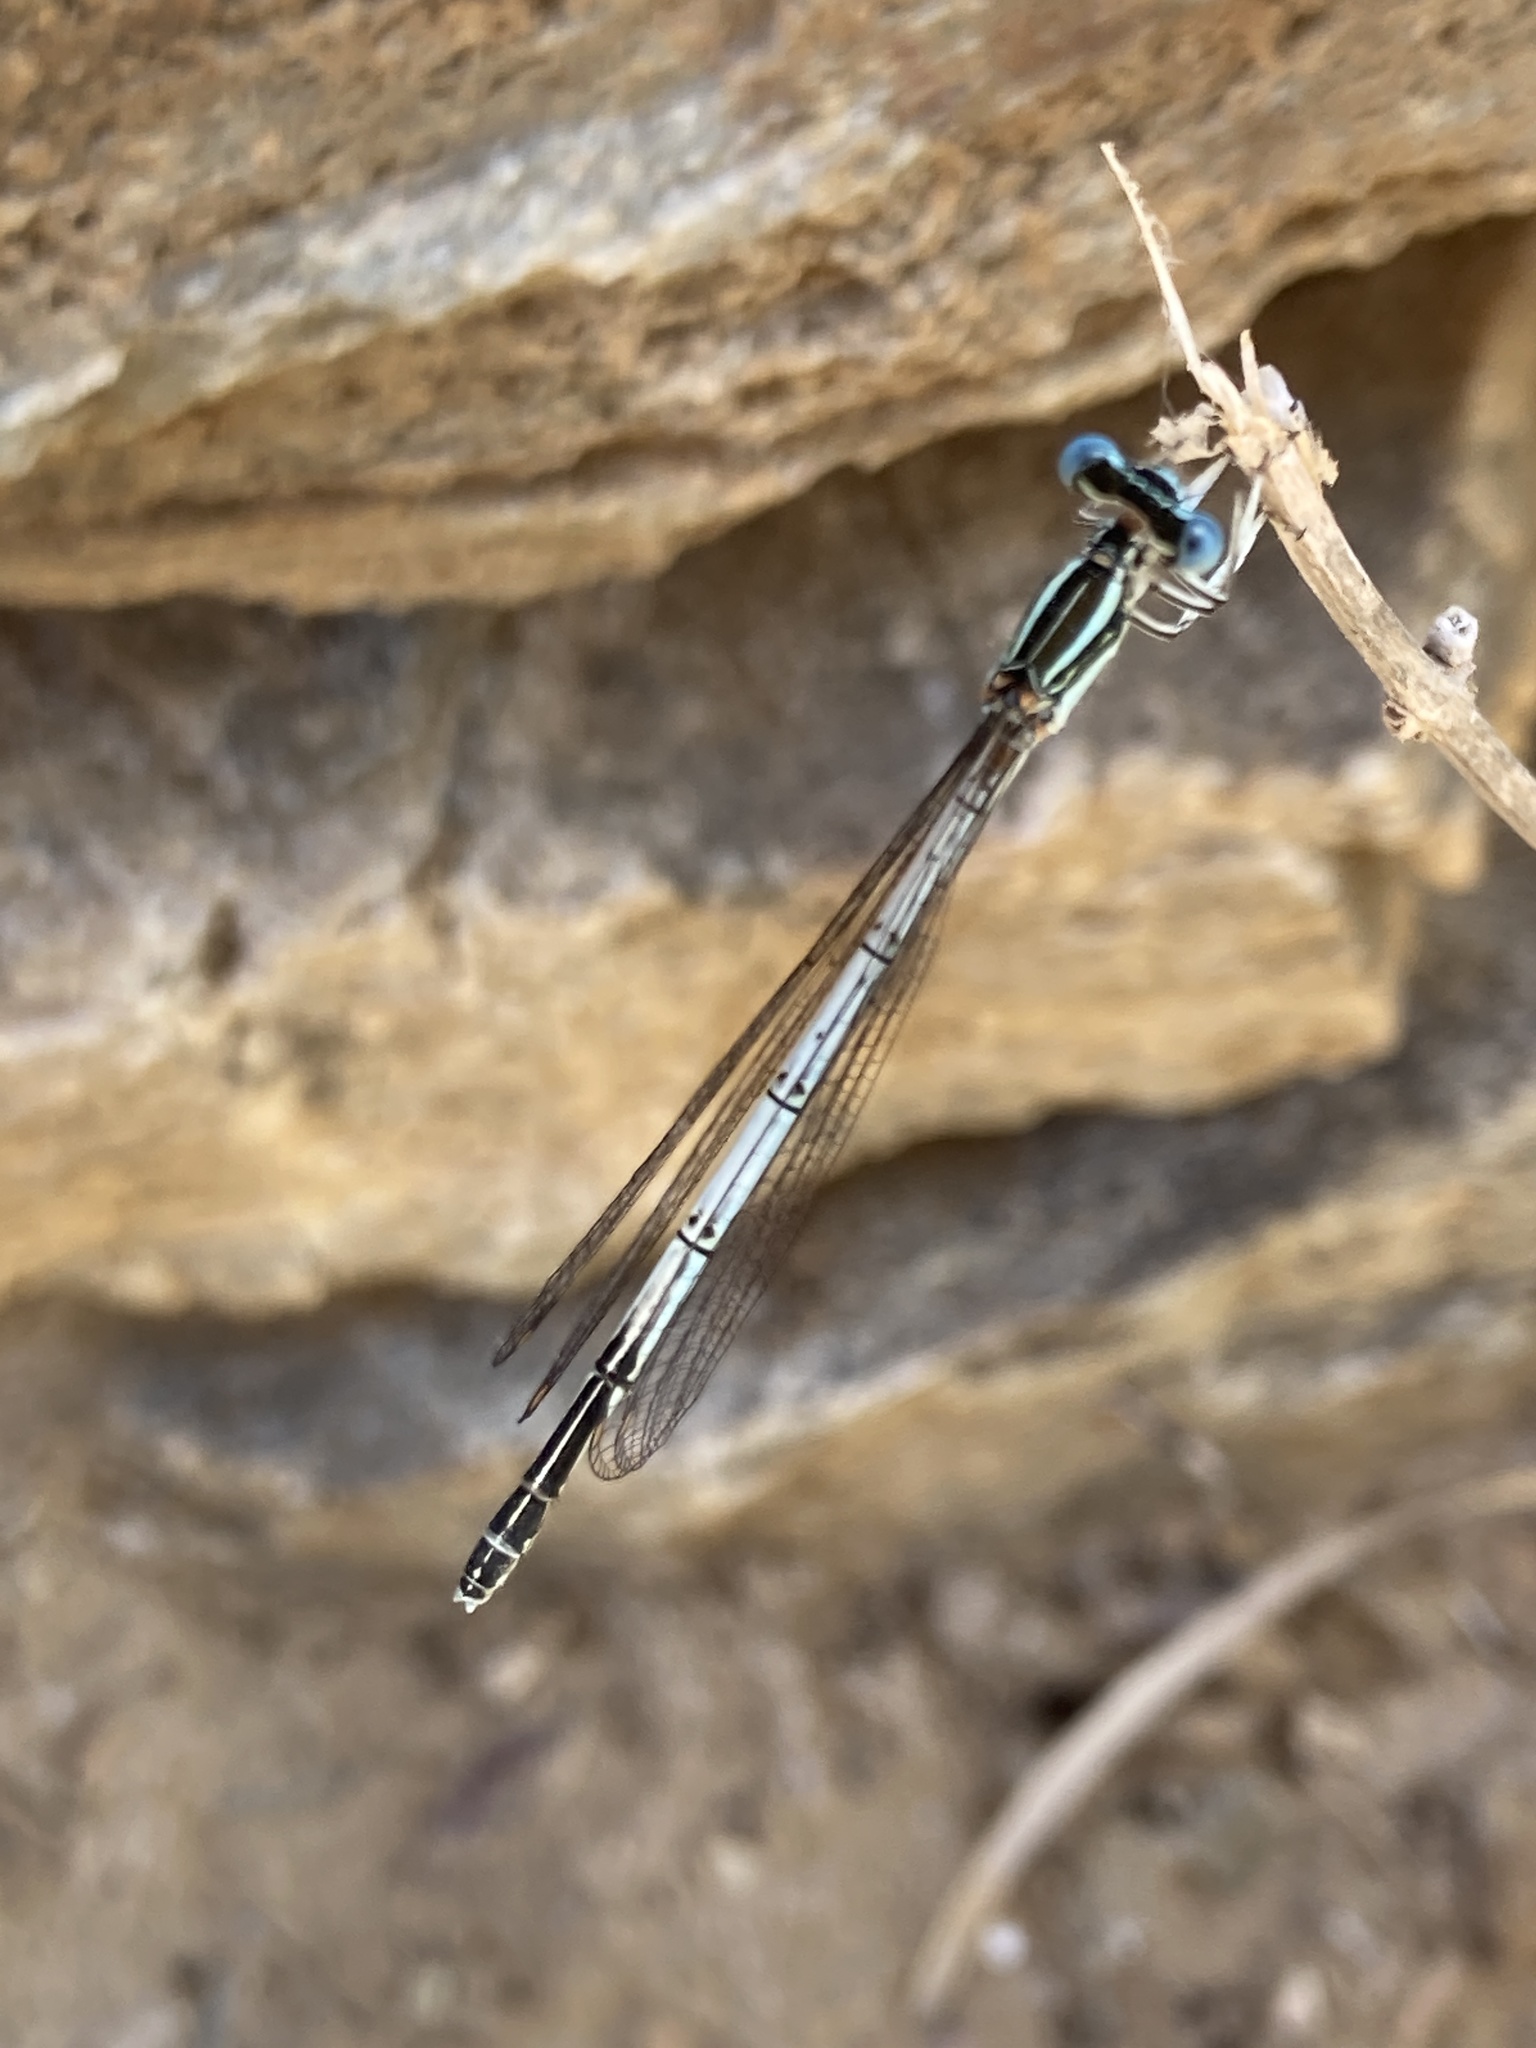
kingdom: Animalia
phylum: Arthropoda
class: Insecta
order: Odonata
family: Platycnemididae
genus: Platycnemis
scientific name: Platycnemis pennipes
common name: White-legged damselfly
